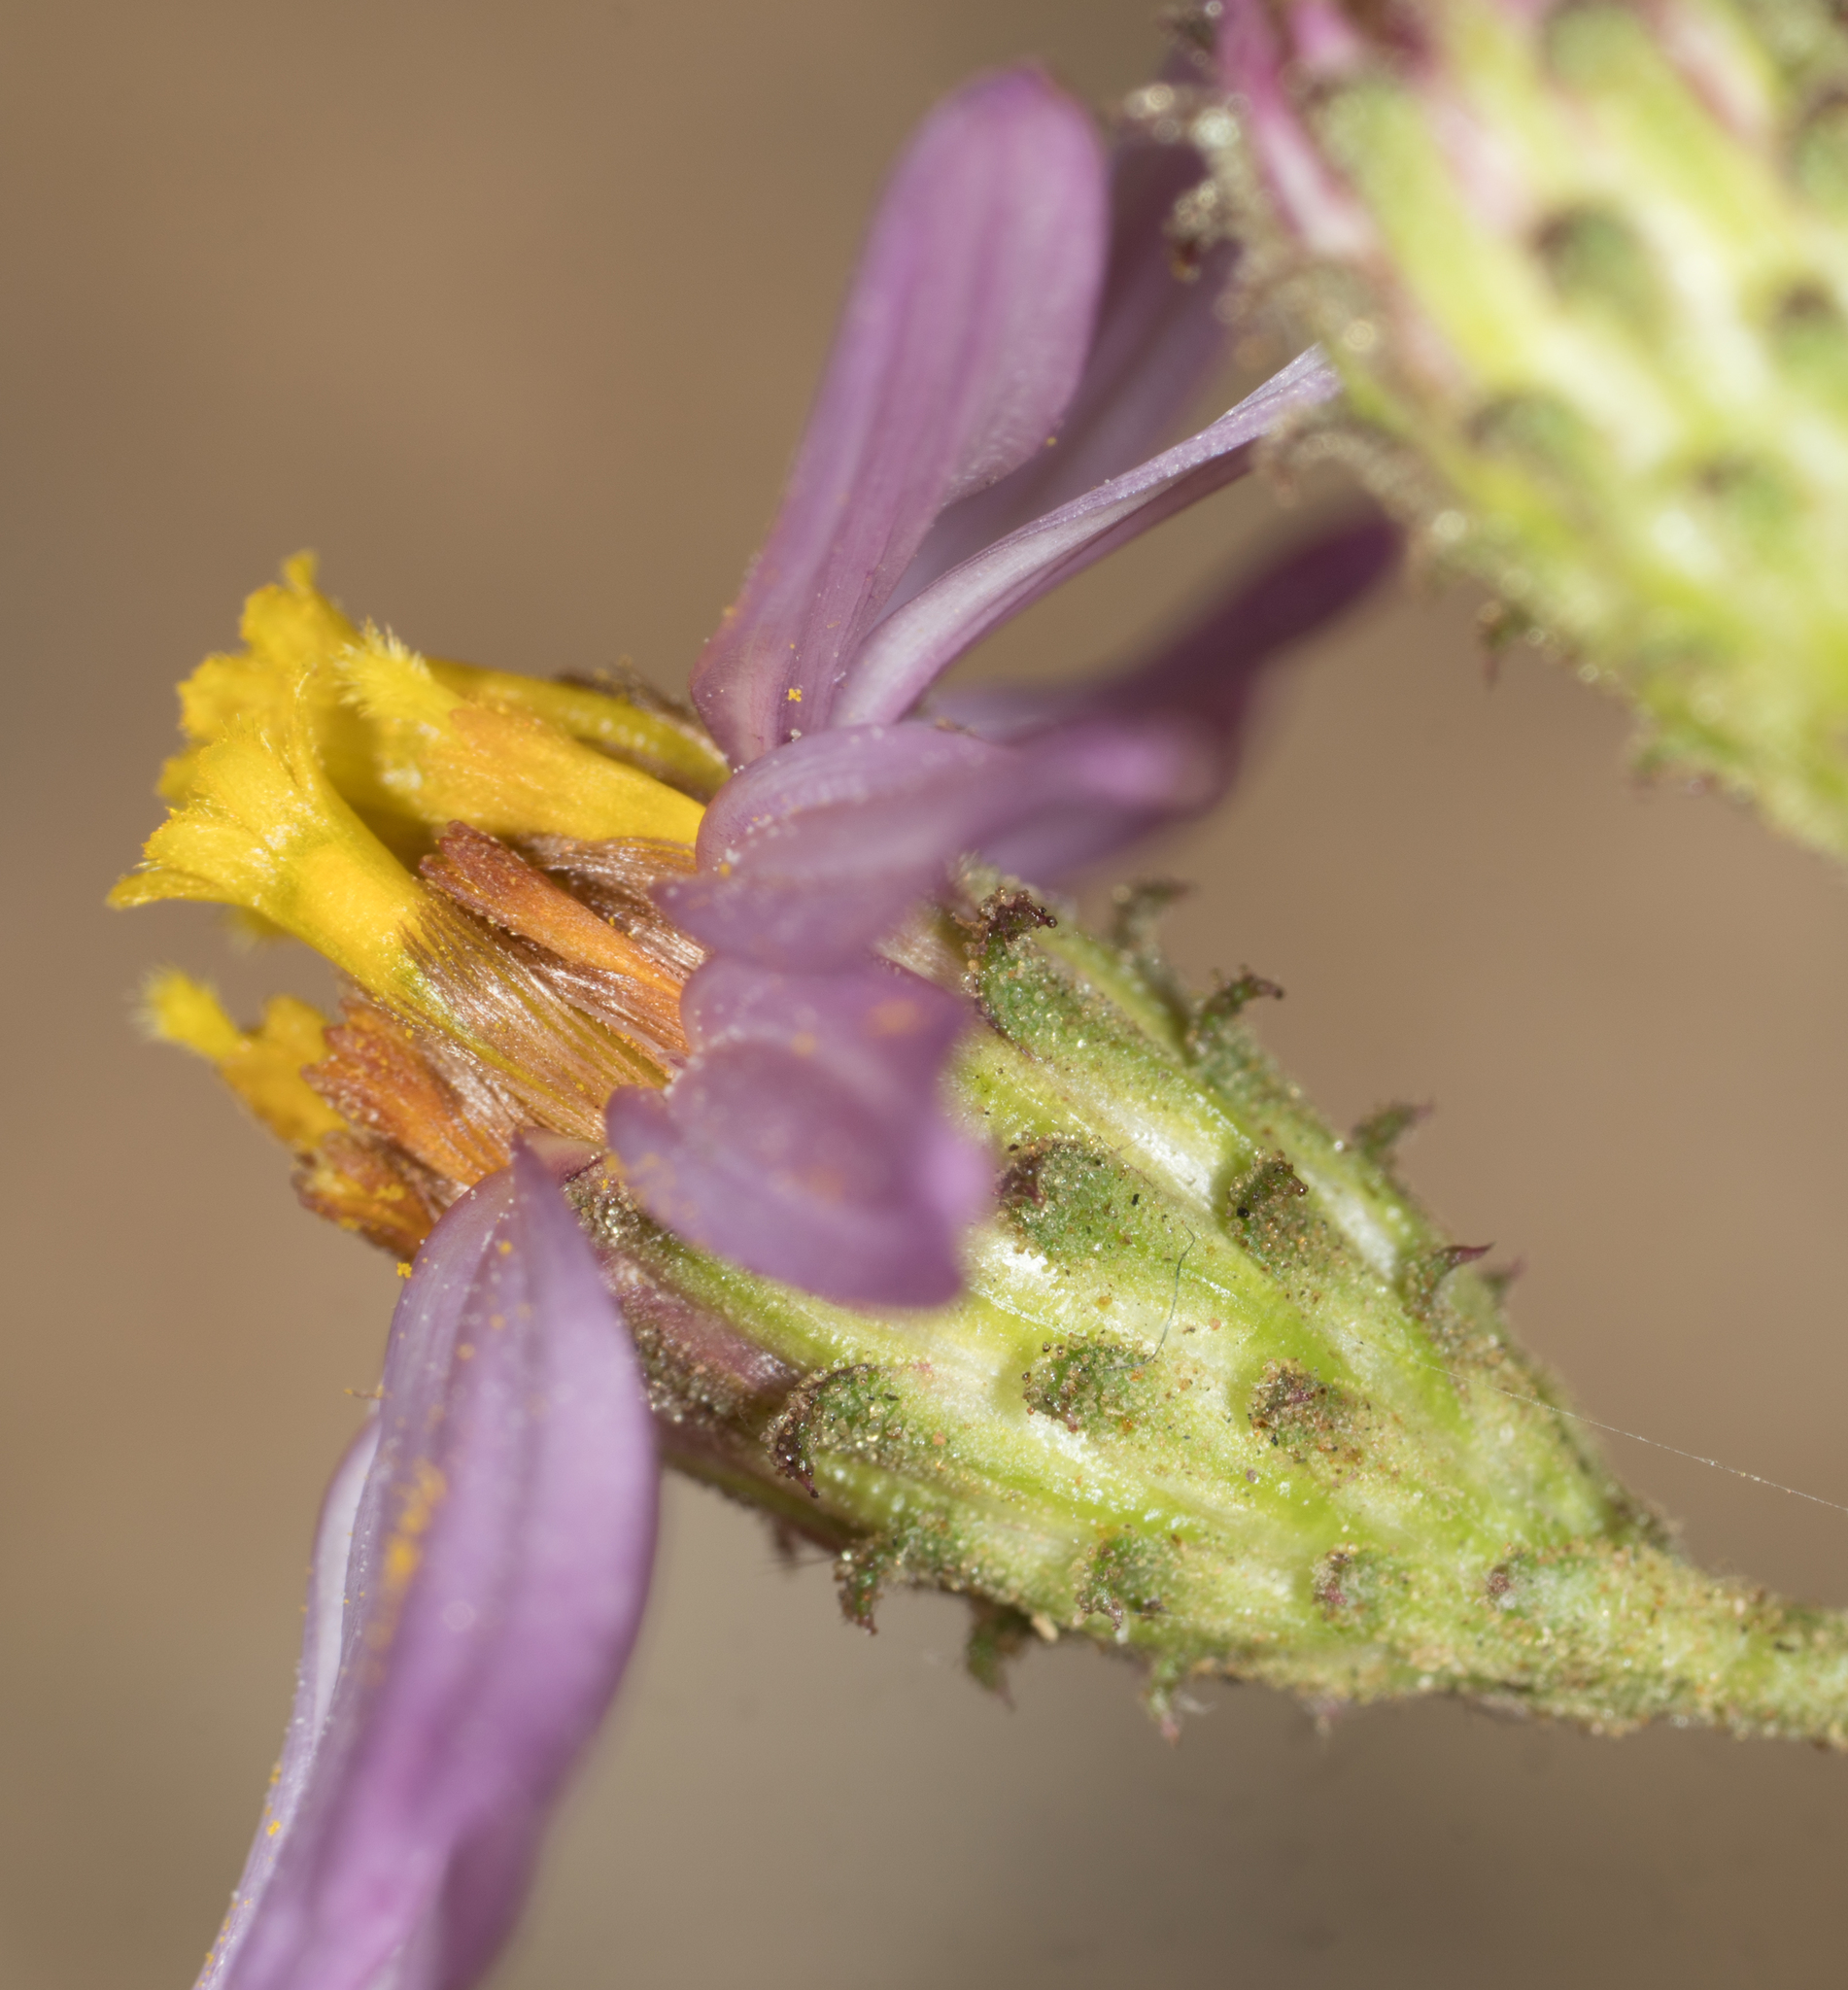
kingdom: Plantae
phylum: Tracheophyta
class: Magnoliopsida
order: Asterales
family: Asteraceae
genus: Corethrogyne
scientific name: Corethrogyne filaginifolia
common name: Sand-aster
